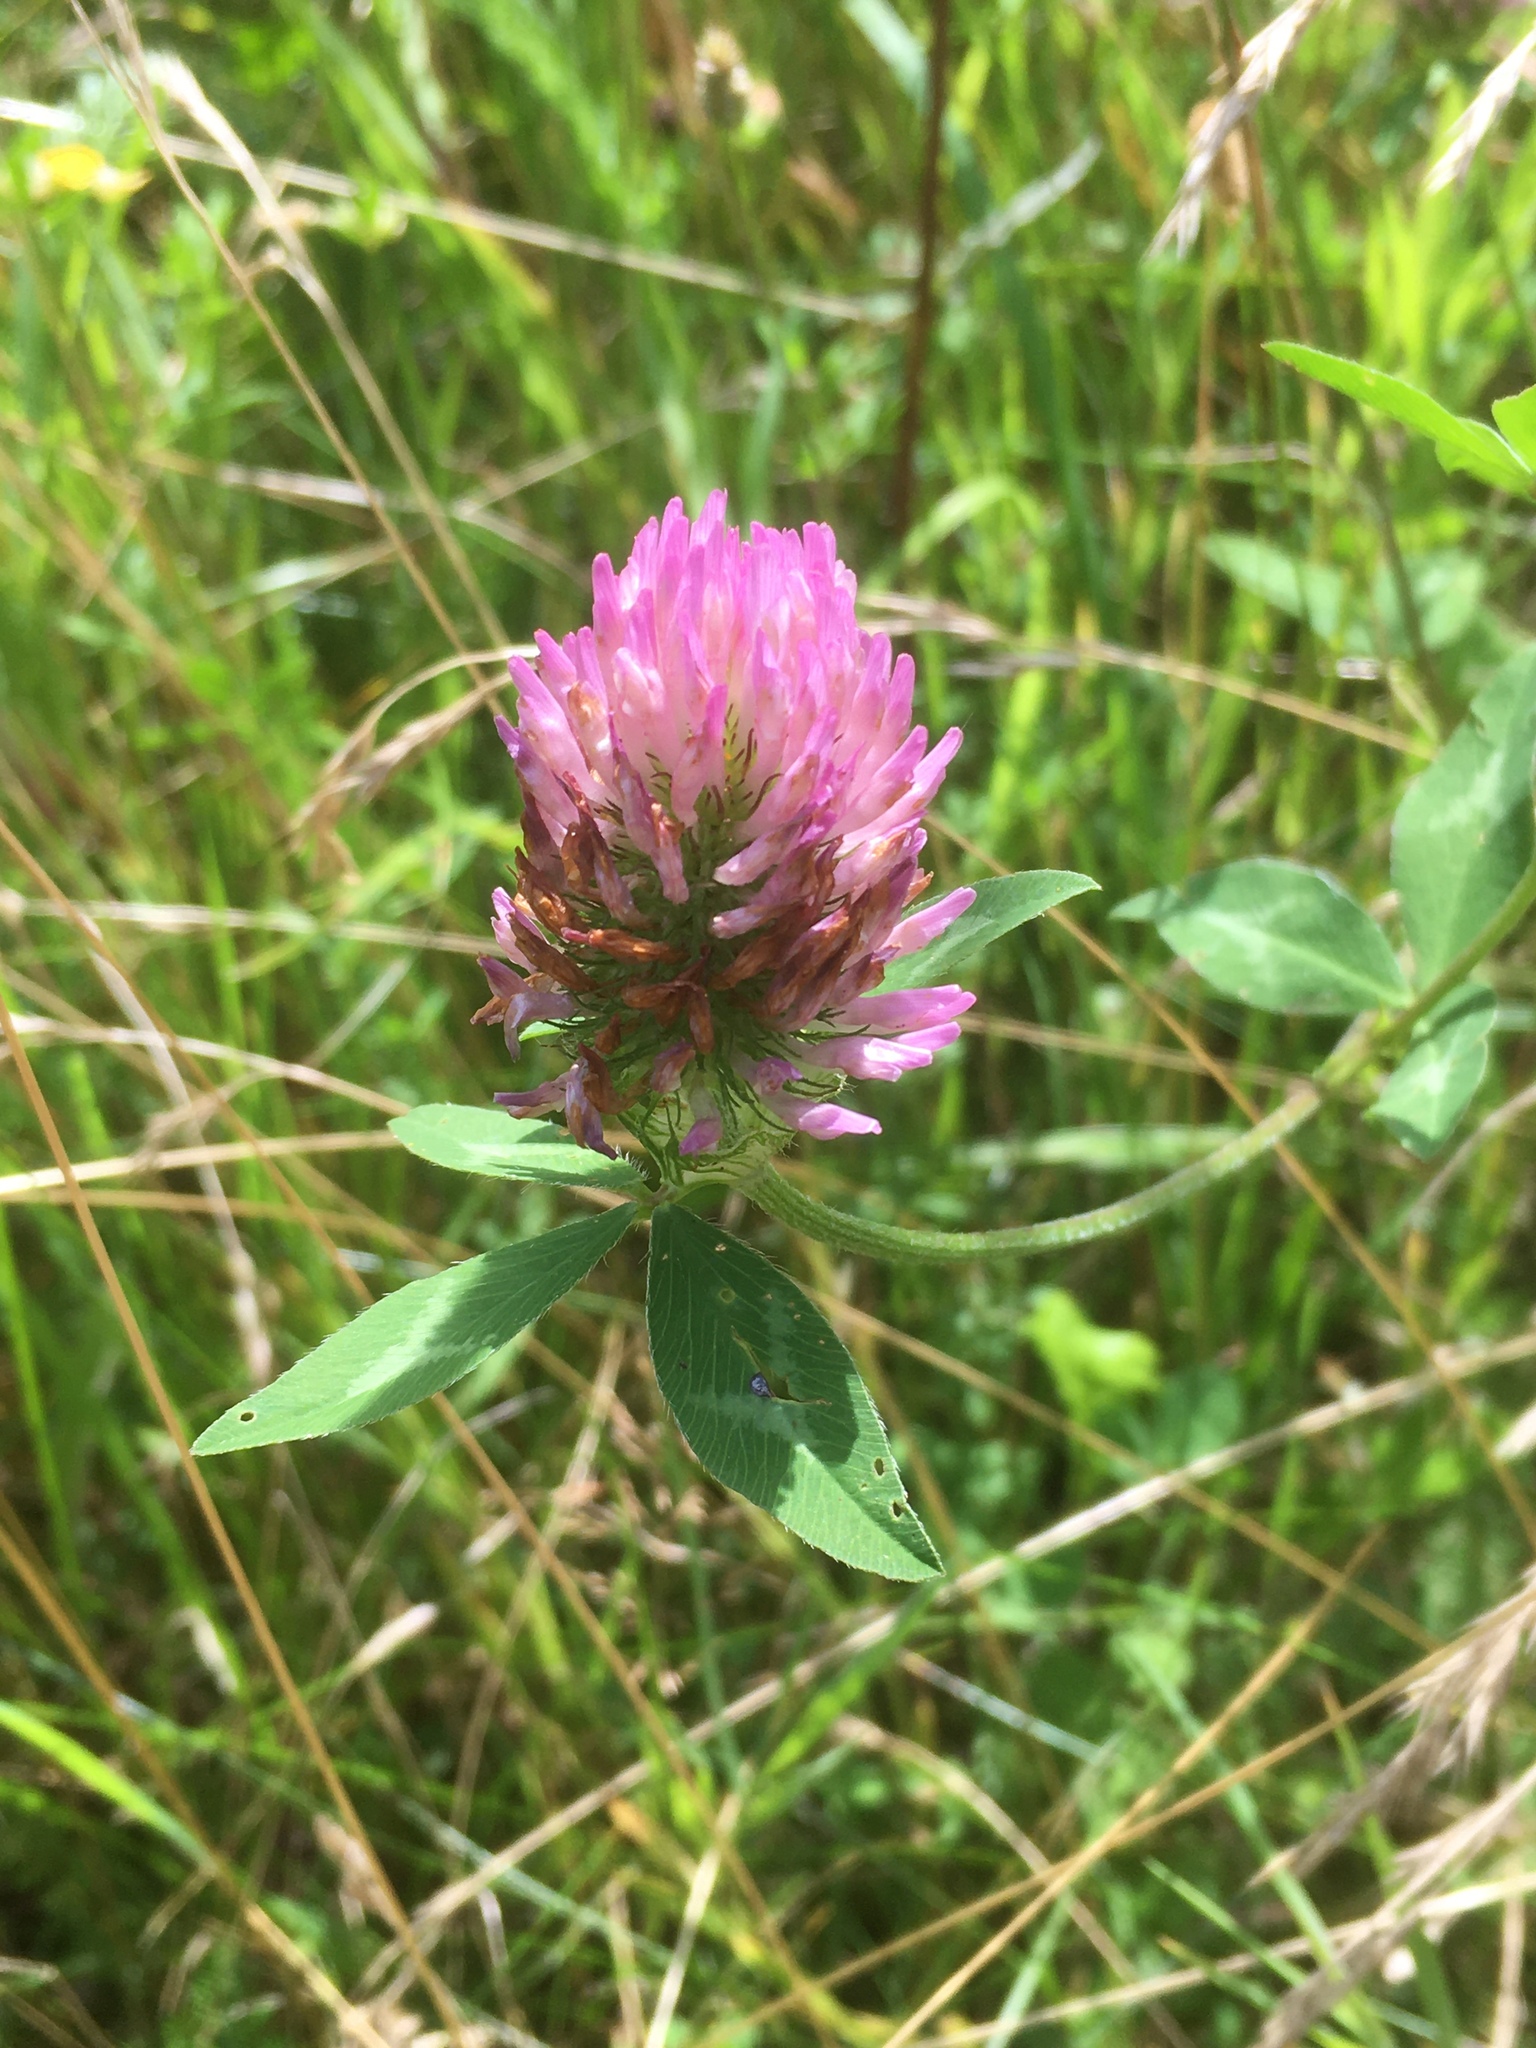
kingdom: Plantae
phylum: Tracheophyta
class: Magnoliopsida
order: Fabales
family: Fabaceae
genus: Trifolium
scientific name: Trifolium pratense
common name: Red clover
